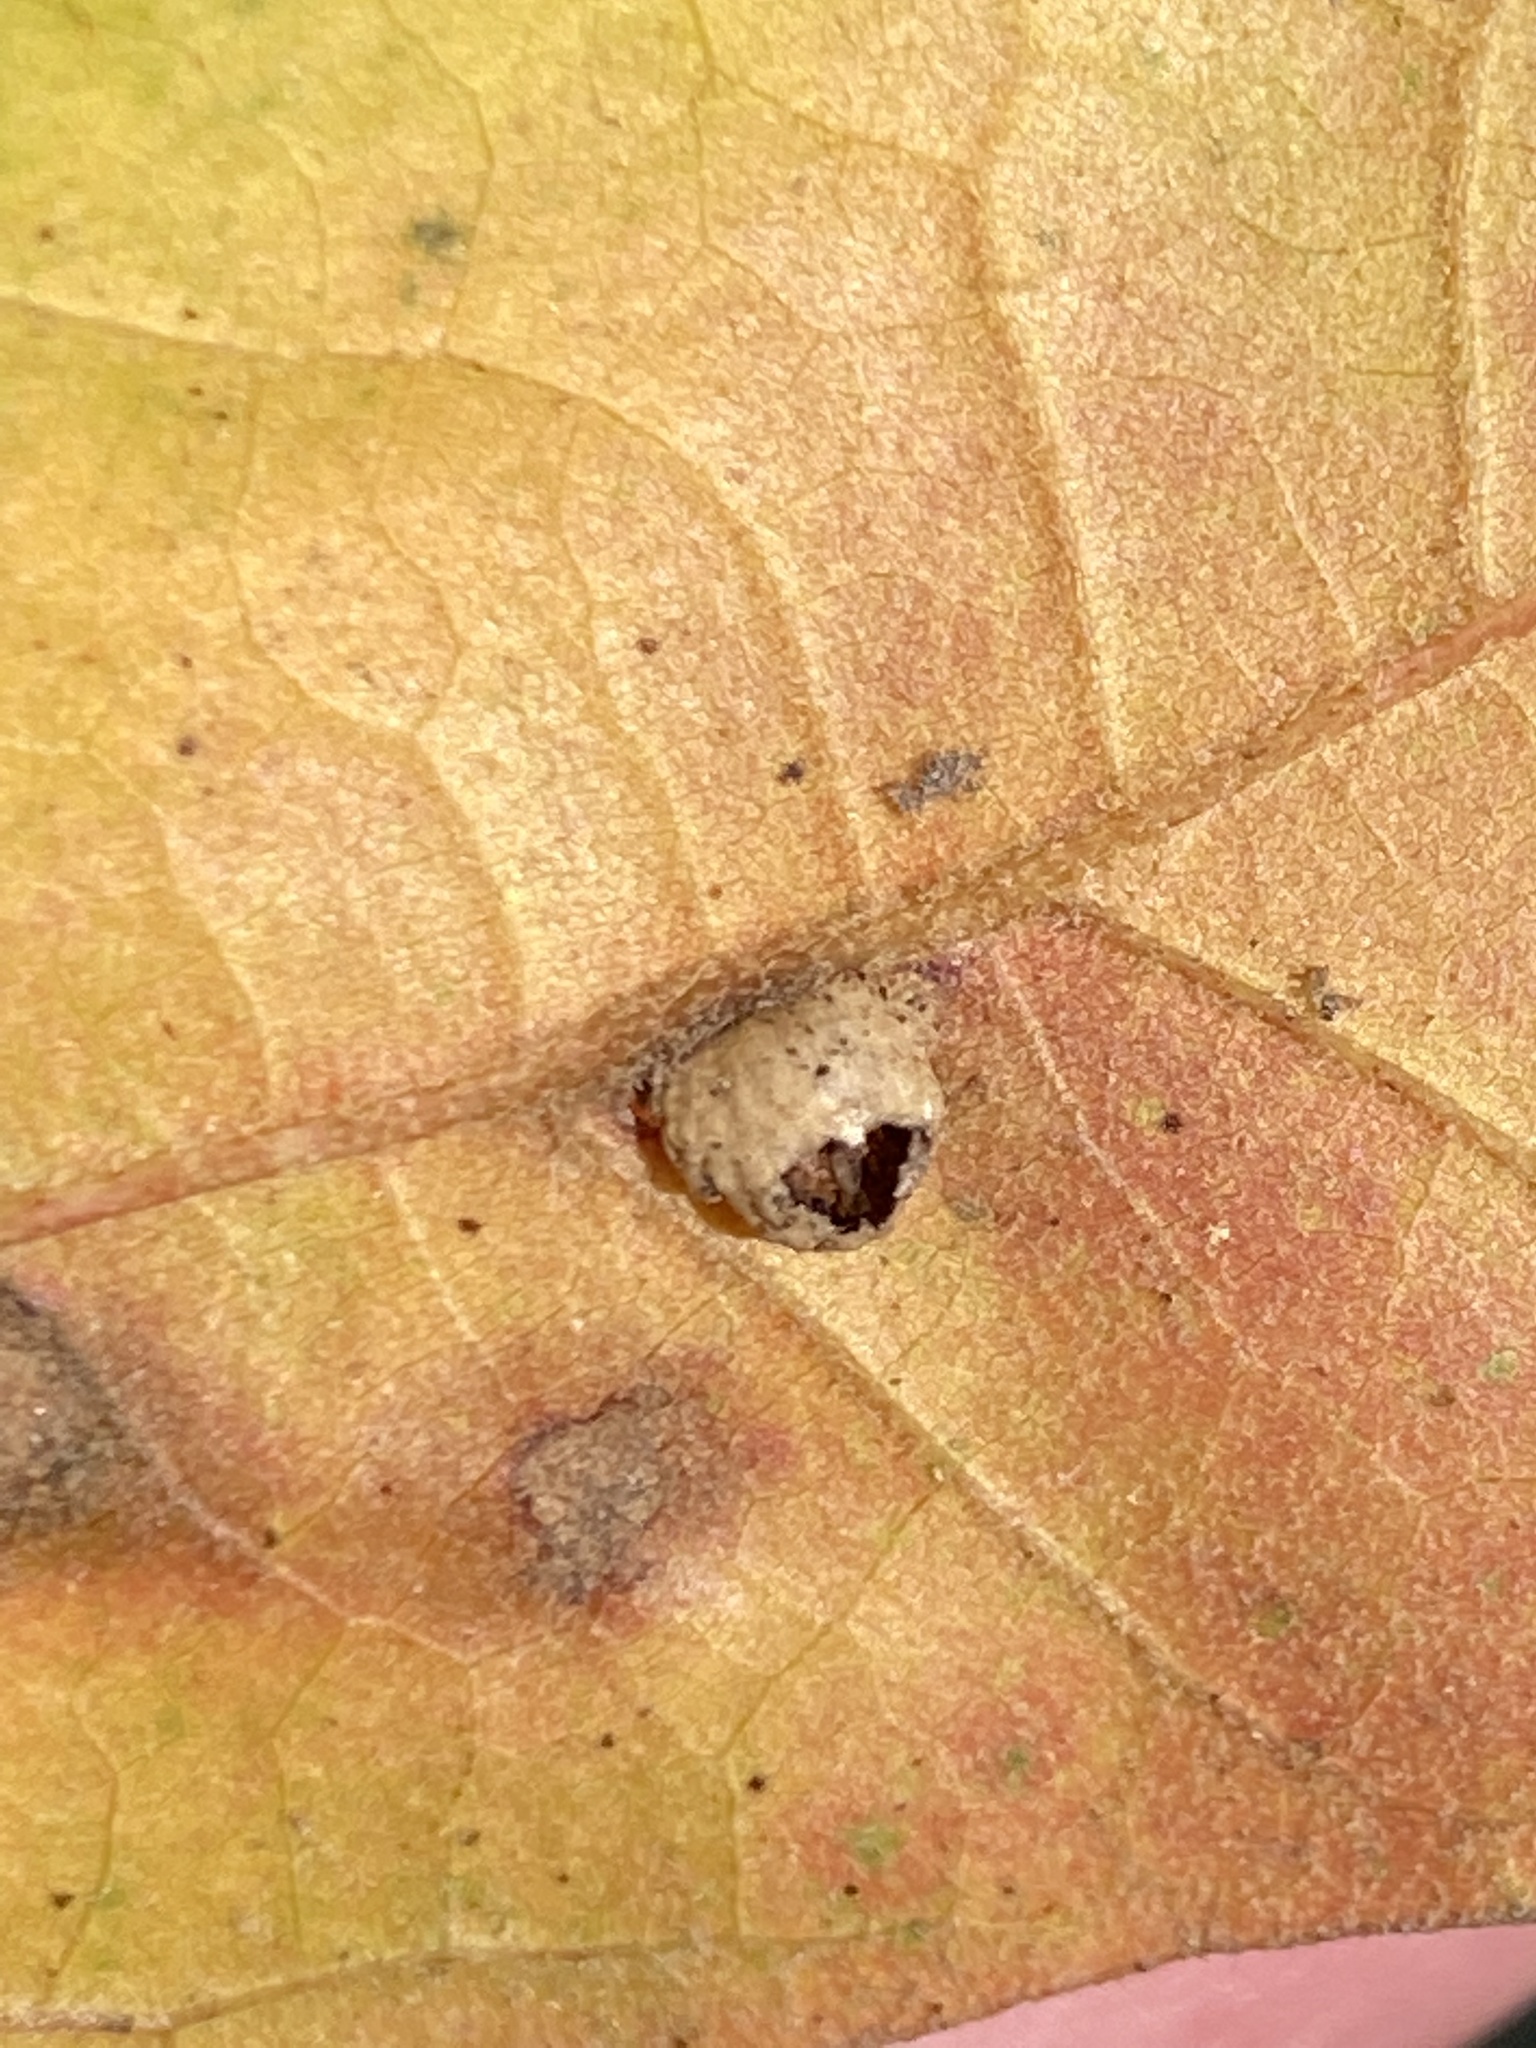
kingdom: Animalia
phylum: Arthropoda
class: Insecta
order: Diptera
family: Cecidomyiidae
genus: Macrodiplosis
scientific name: Macrodiplosis majalis
